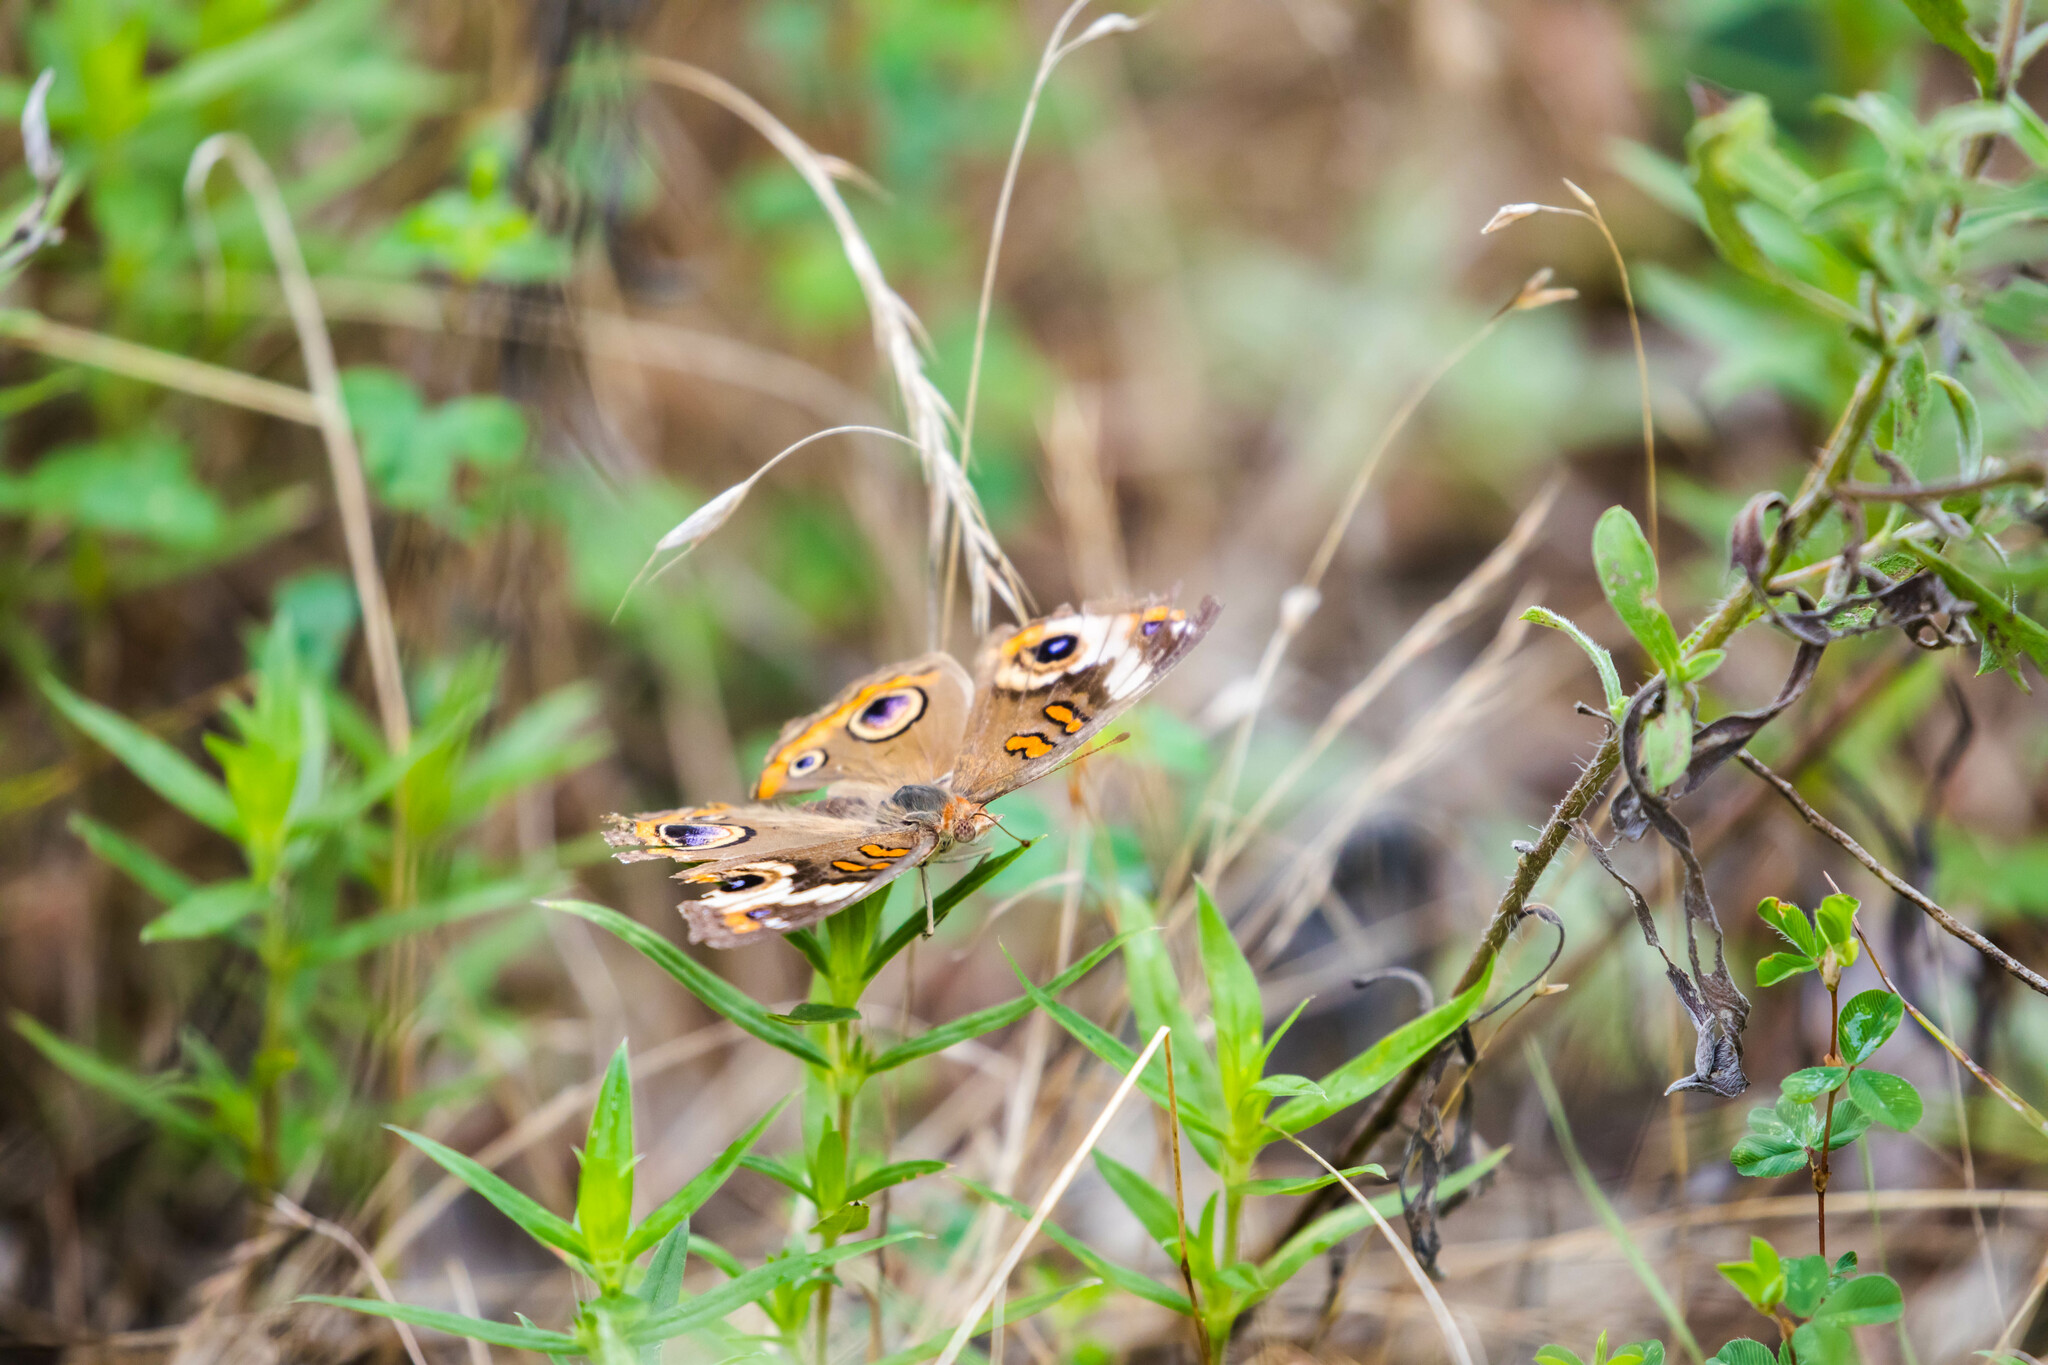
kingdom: Animalia
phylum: Arthropoda
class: Insecta
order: Lepidoptera
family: Nymphalidae
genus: Junonia
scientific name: Junonia coenia
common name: Common buckeye
